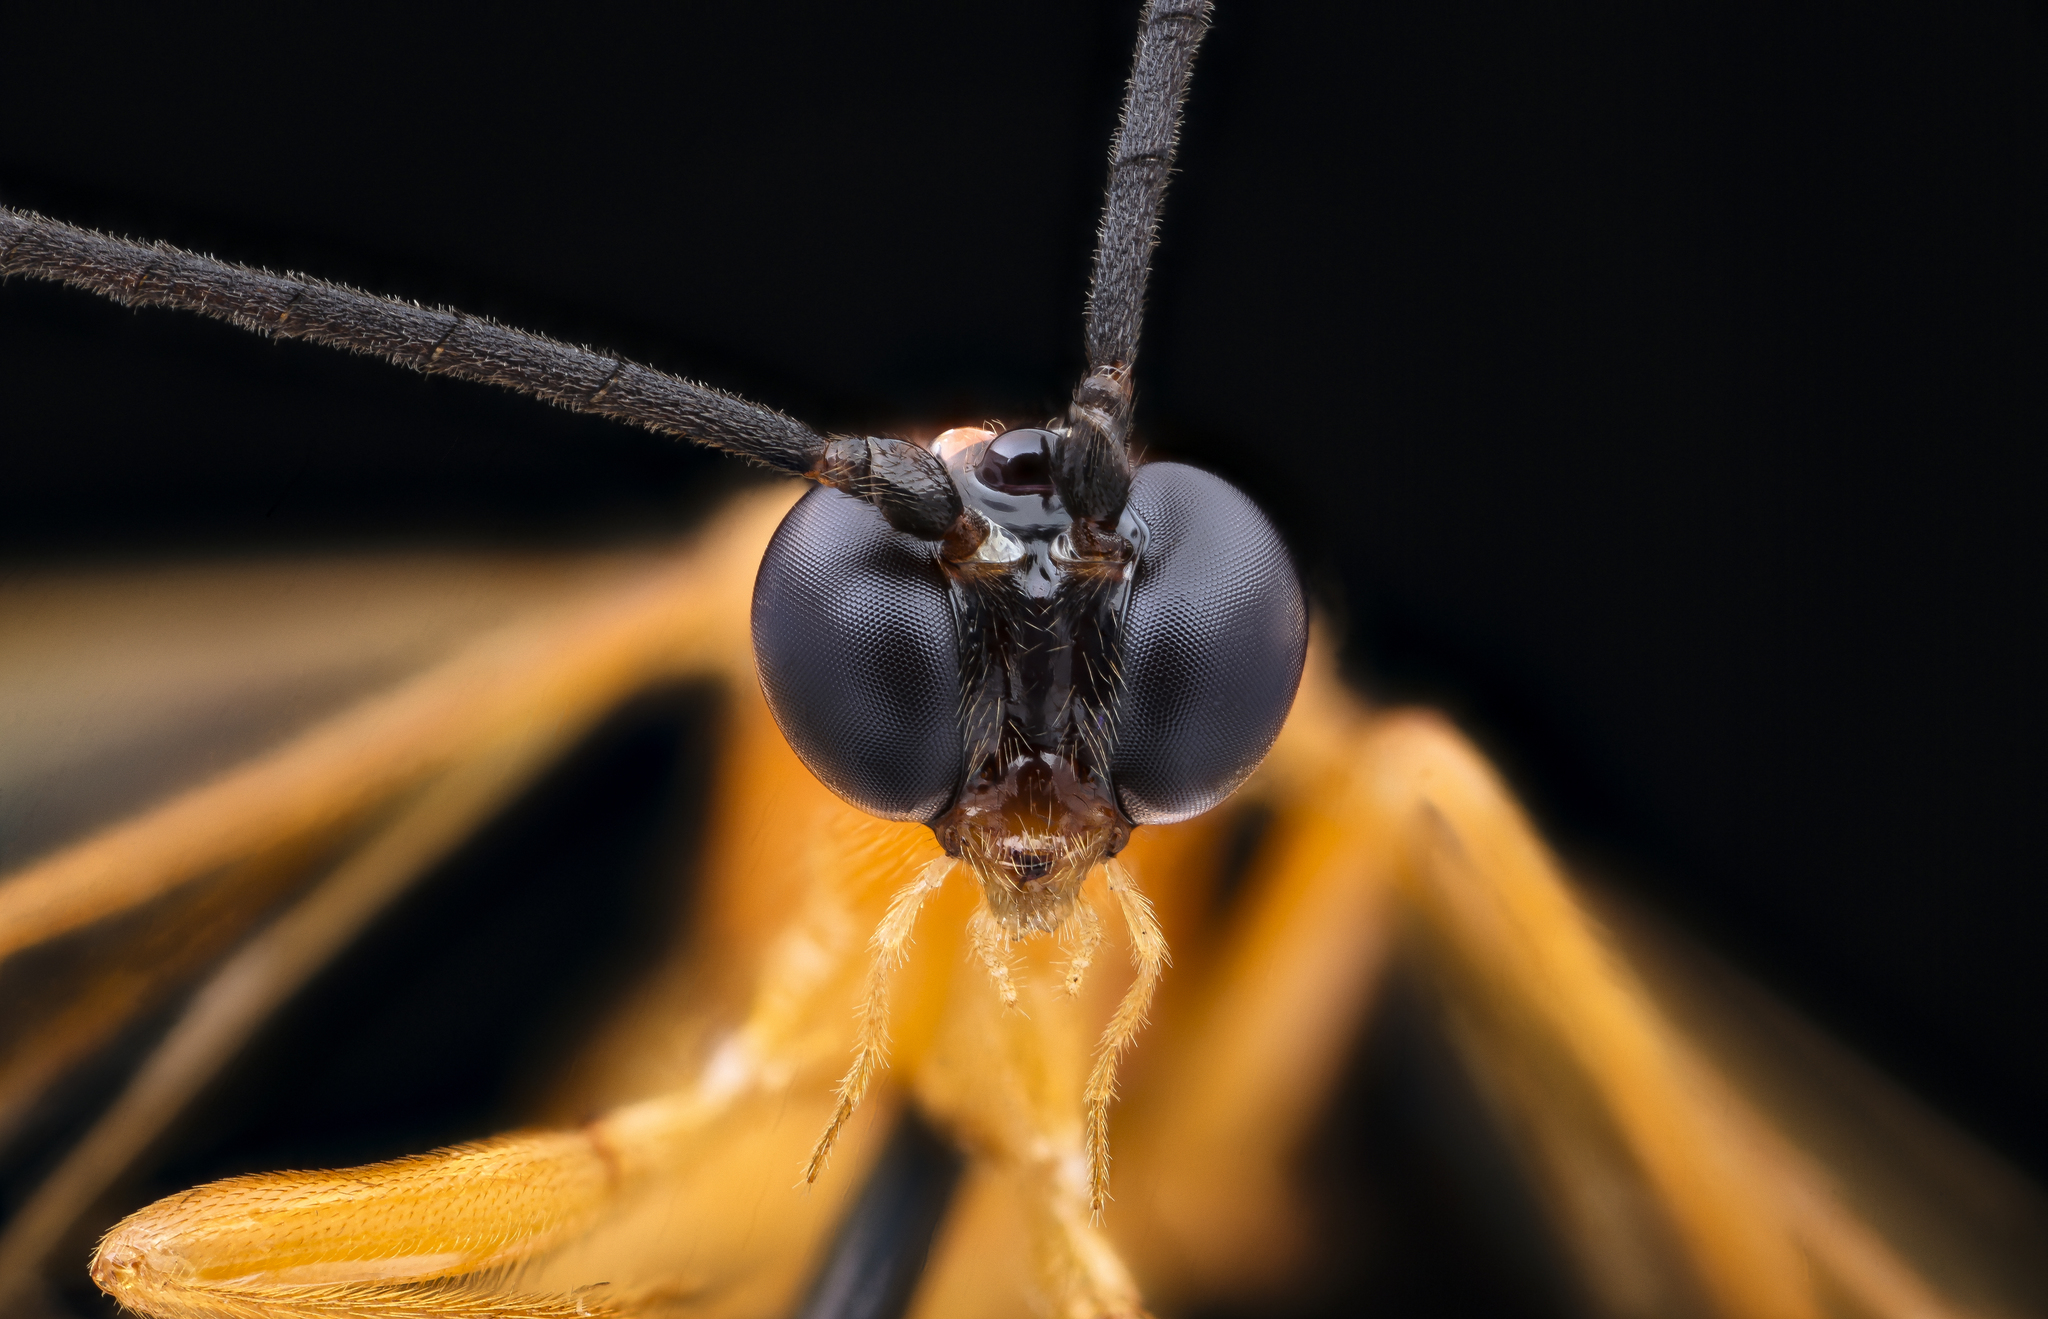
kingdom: Animalia
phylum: Arthropoda
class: Insecta
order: Hymenoptera
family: Ichneumonidae
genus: Acrotaphus
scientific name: Acrotaphus wiltii
